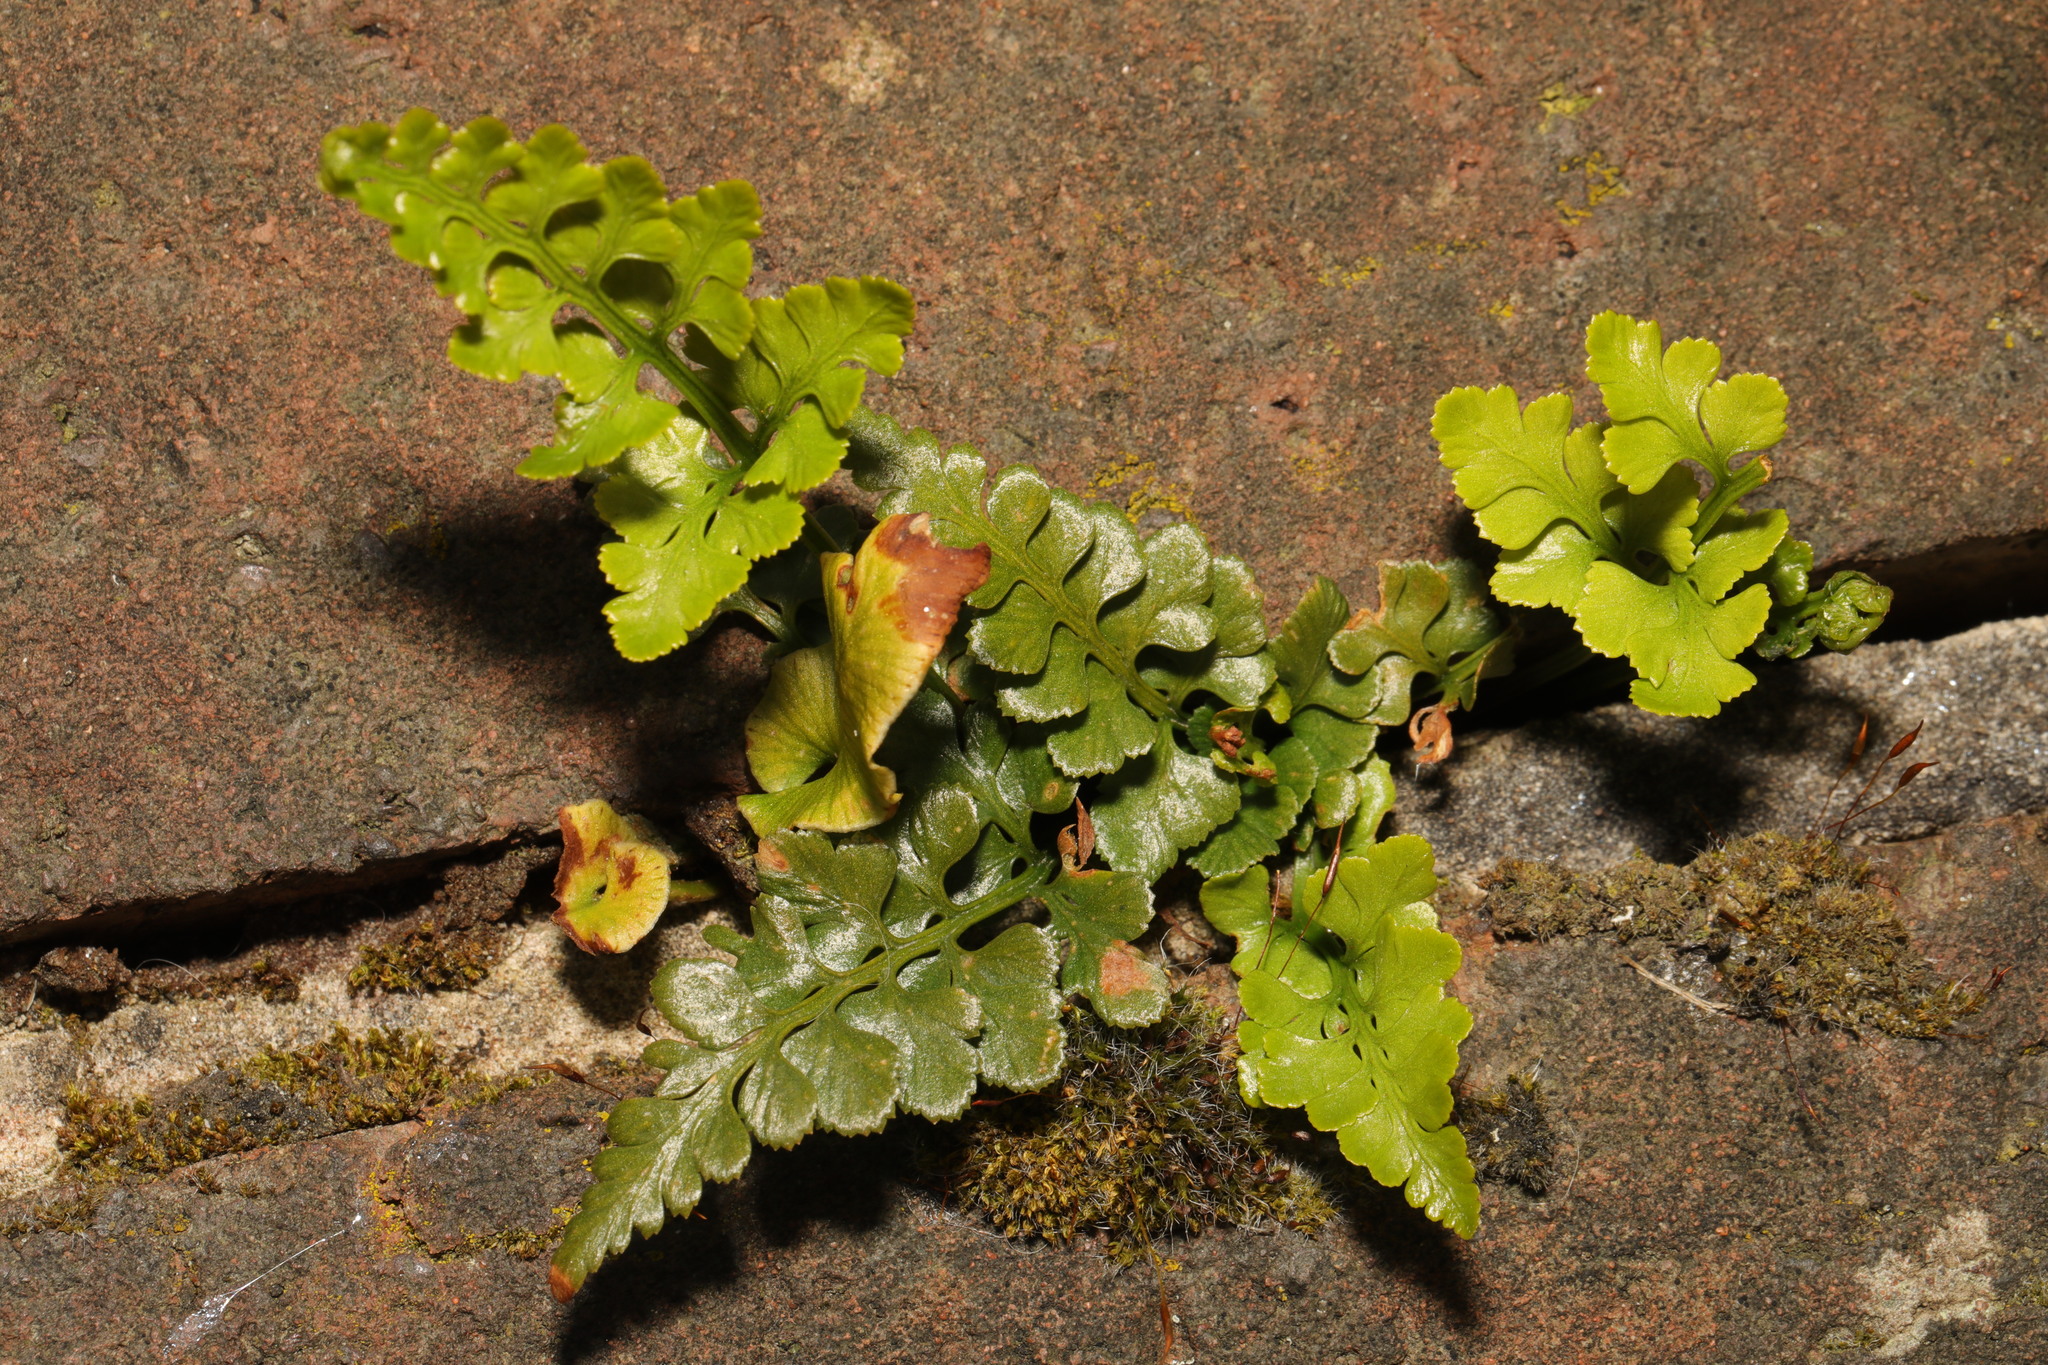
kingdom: Plantae
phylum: Tracheophyta
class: Polypodiopsida
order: Polypodiales
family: Aspleniaceae
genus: Asplenium
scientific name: Asplenium adiantum-nigrum
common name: Black spleenwort
